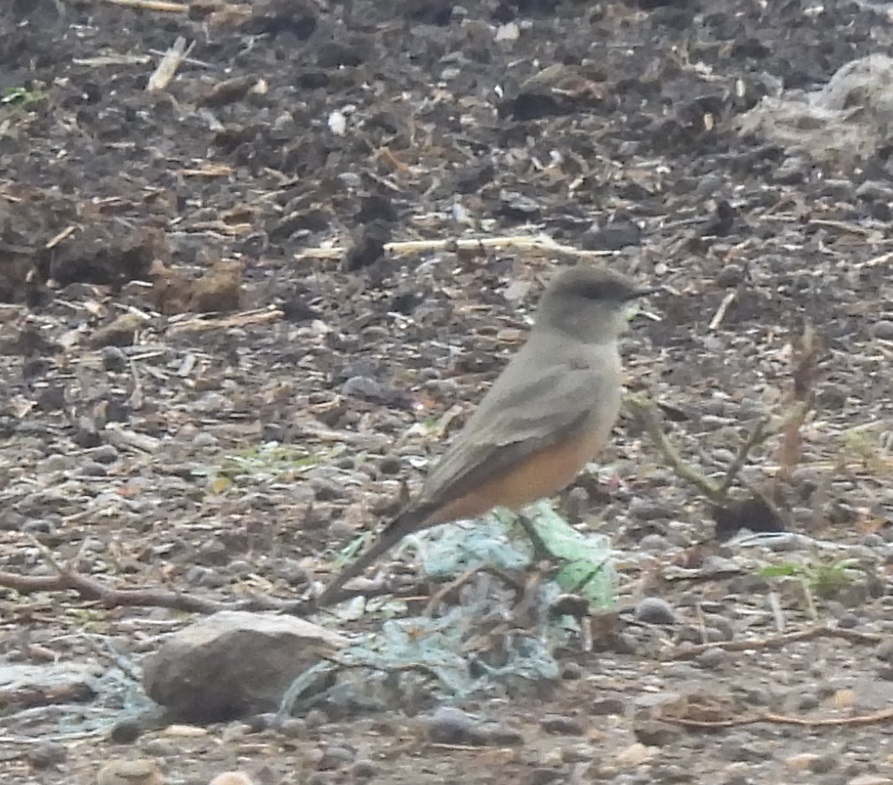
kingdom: Animalia
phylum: Chordata
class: Aves
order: Passeriformes
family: Tyrannidae
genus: Sayornis
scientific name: Sayornis saya
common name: Say's phoebe
